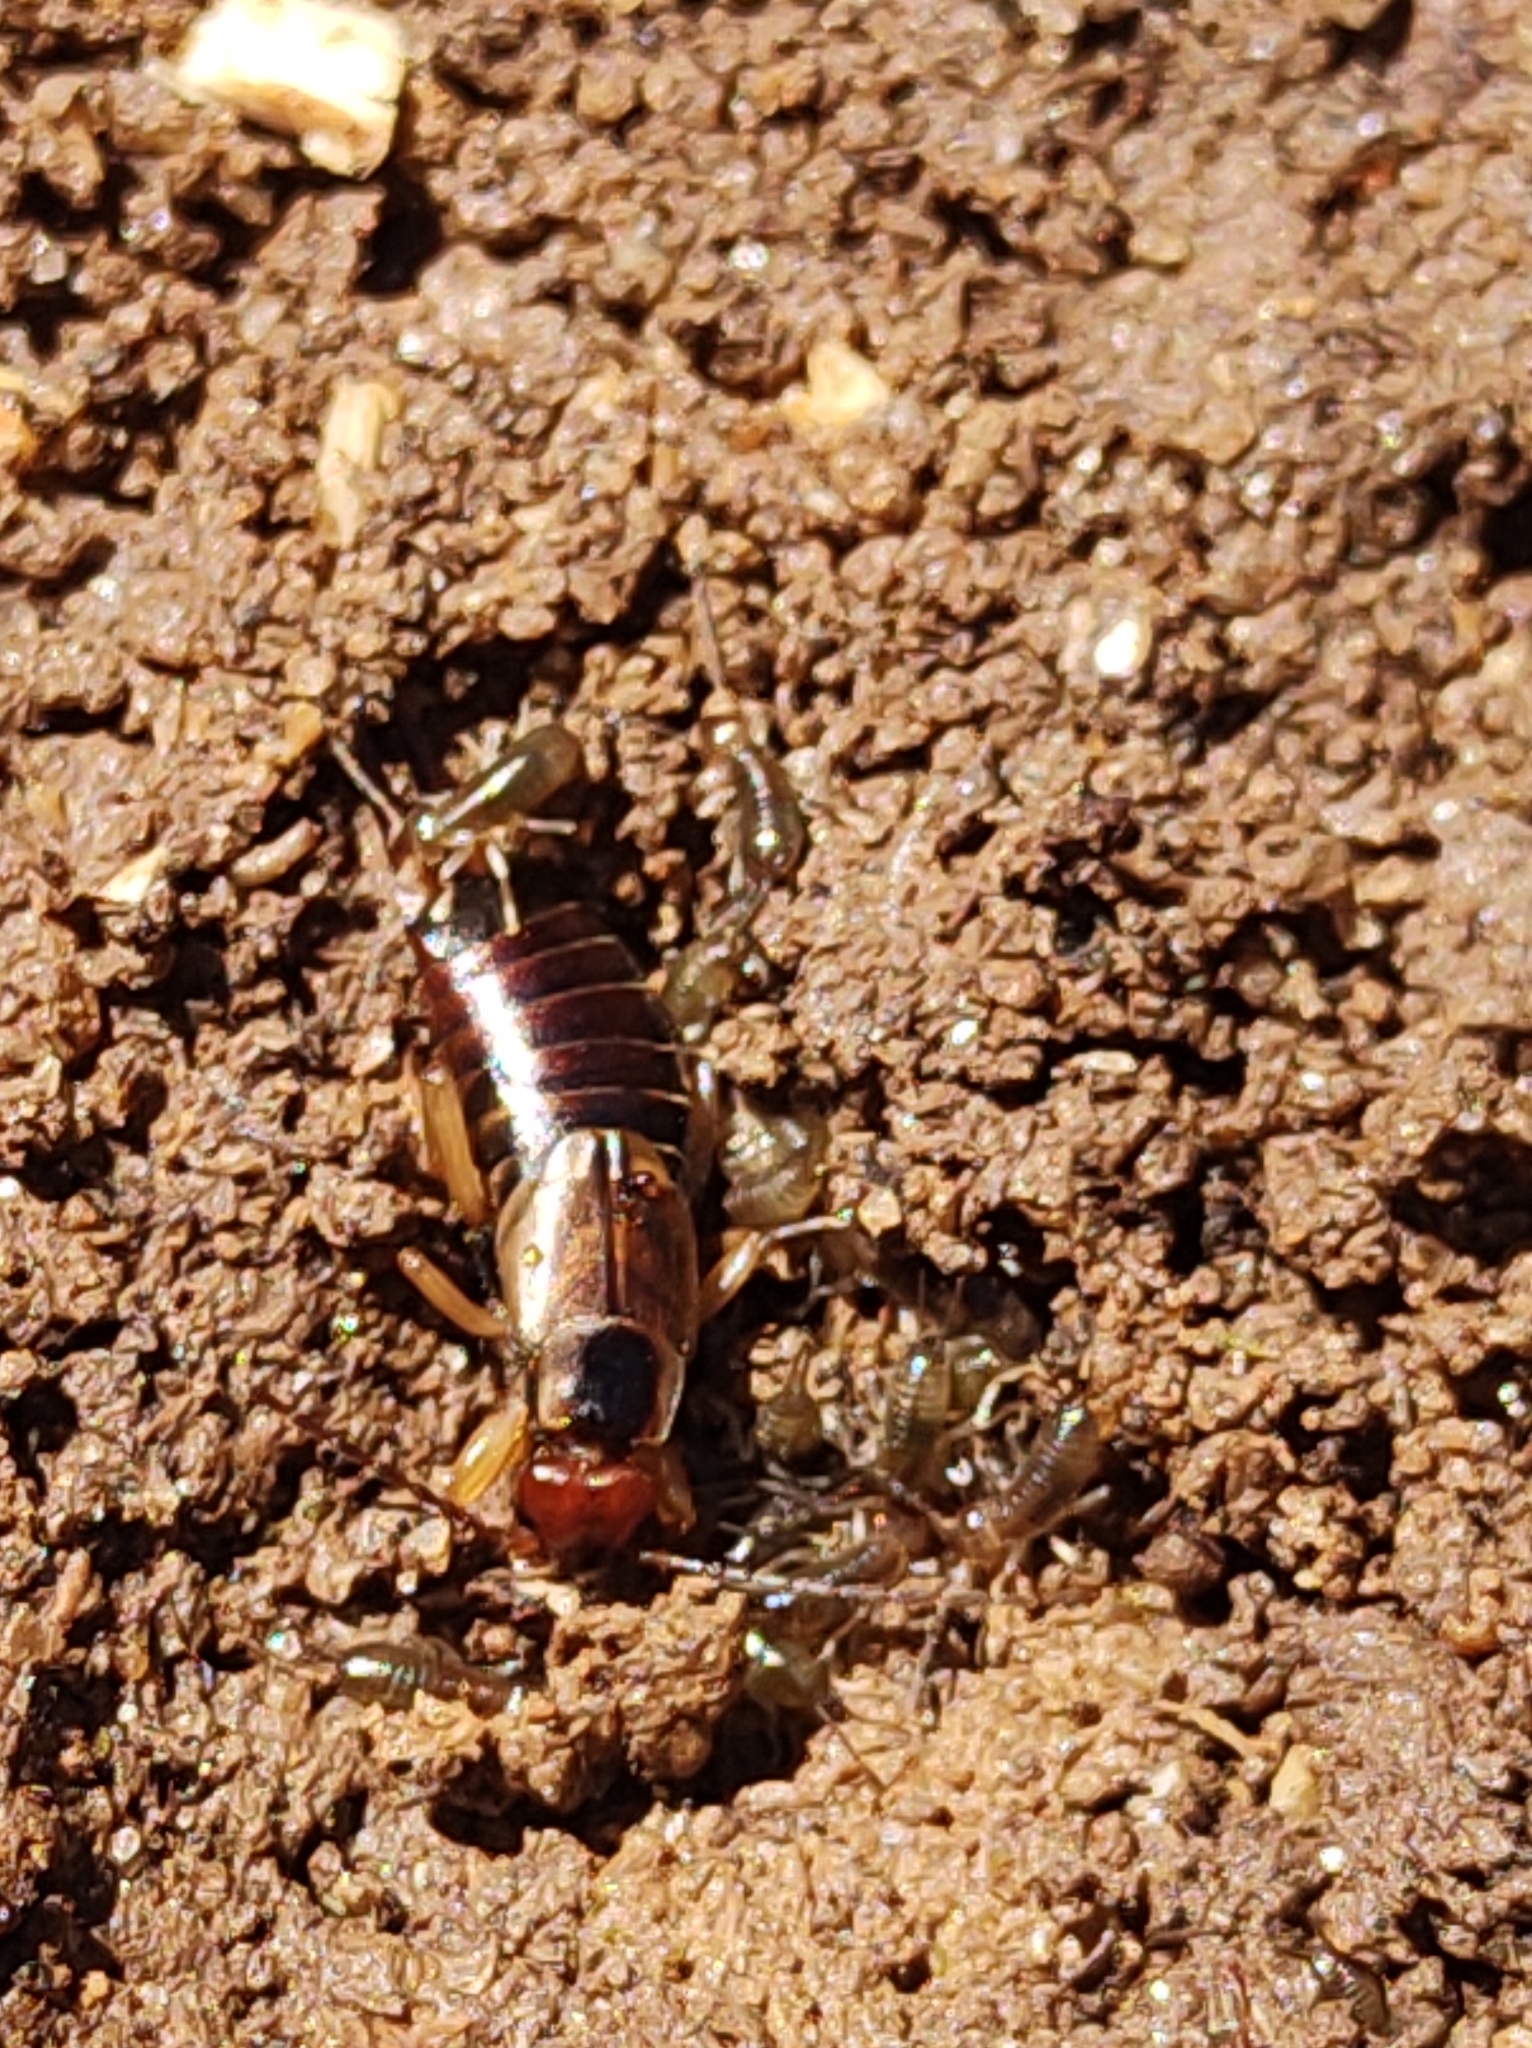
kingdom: Animalia
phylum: Arthropoda
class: Insecta
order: Dermaptera
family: Forficulidae
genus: Forficula
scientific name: Forficula
